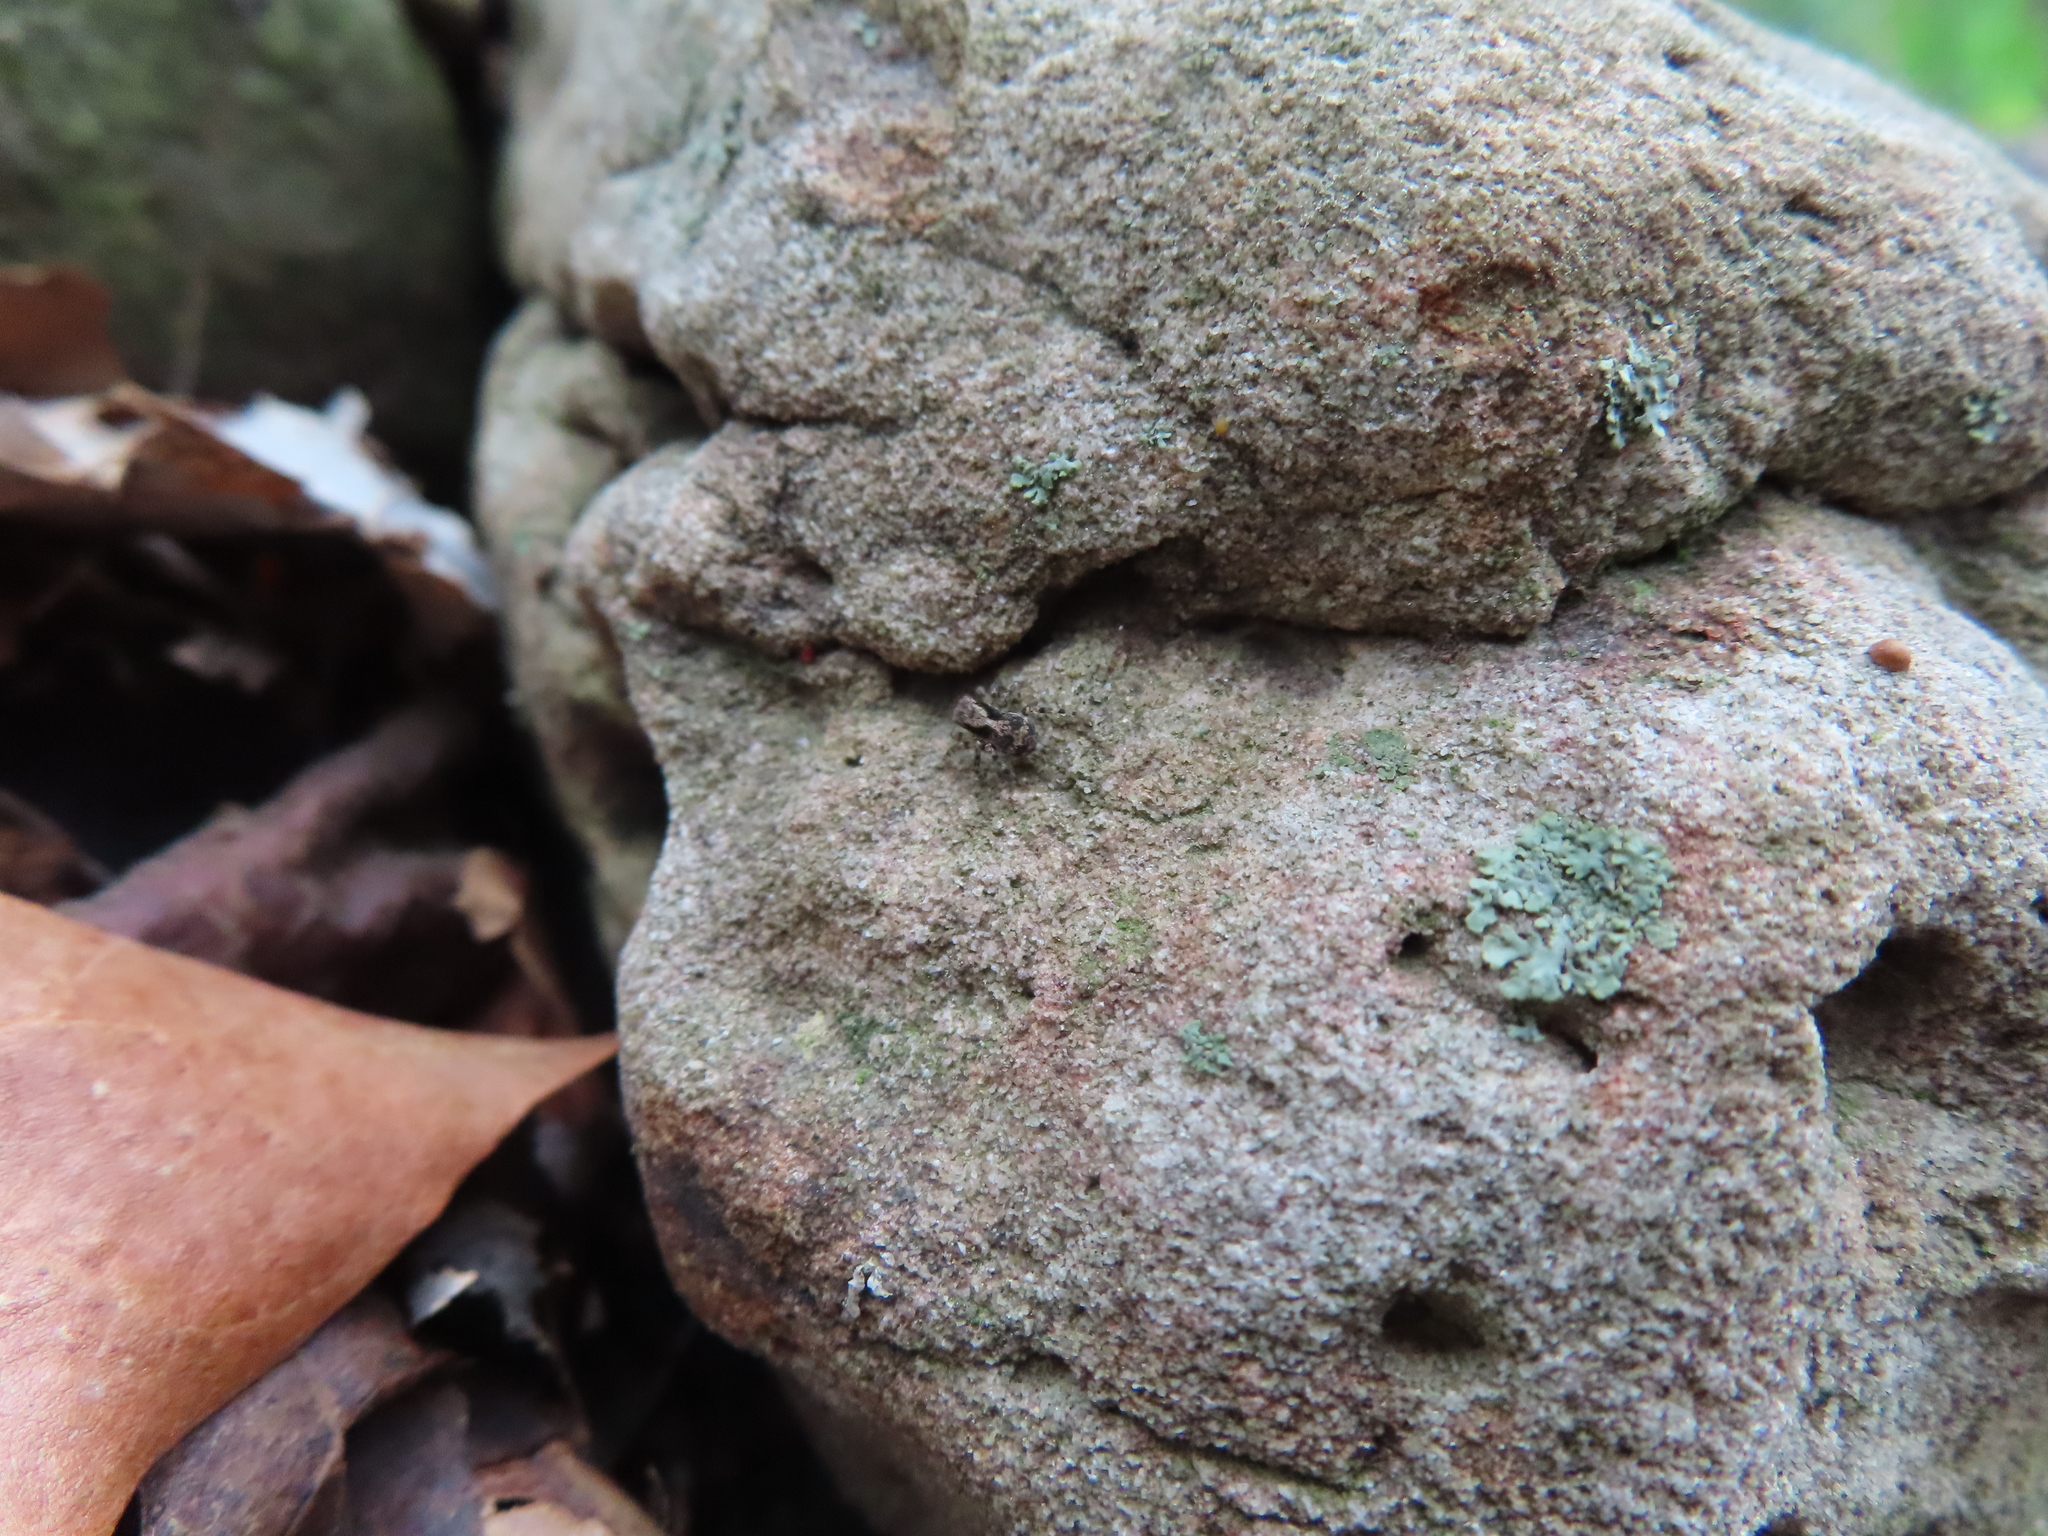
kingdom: Animalia
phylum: Arthropoda
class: Arachnida
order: Araneae
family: Salticidae
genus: Naphrys
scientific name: Naphrys pulex
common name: Flea jumping spider
